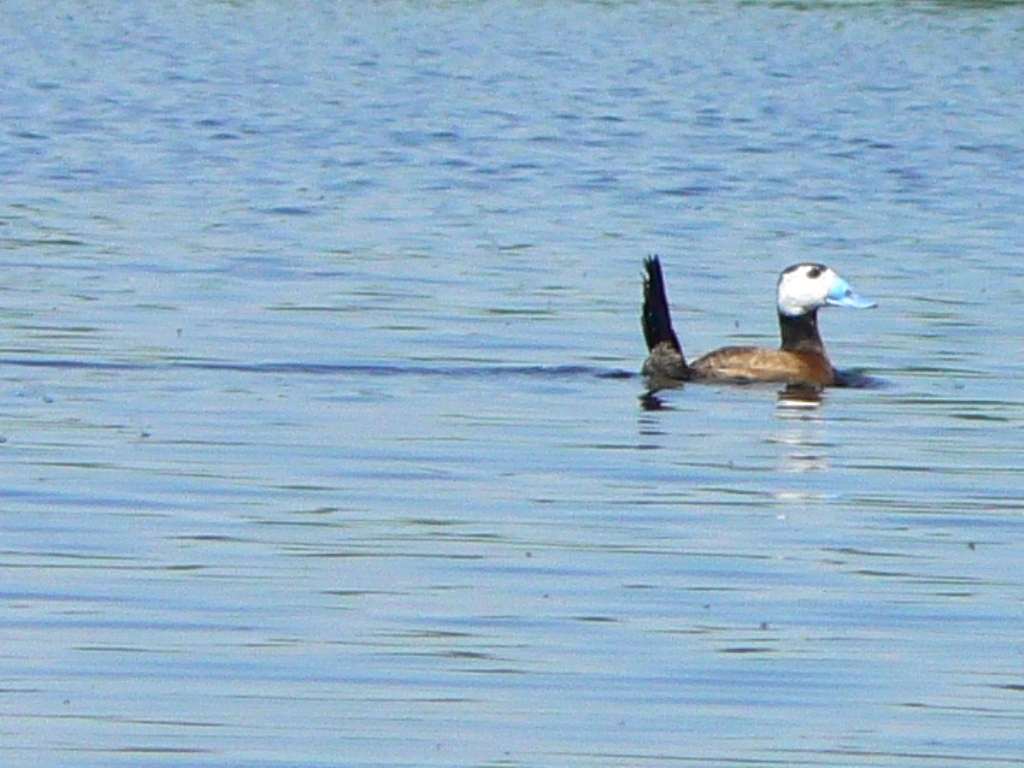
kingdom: Animalia
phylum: Chordata
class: Aves
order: Anseriformes
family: Anatidae
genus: Oxyura
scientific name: Oxyura leucocephala
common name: White-headed duck
